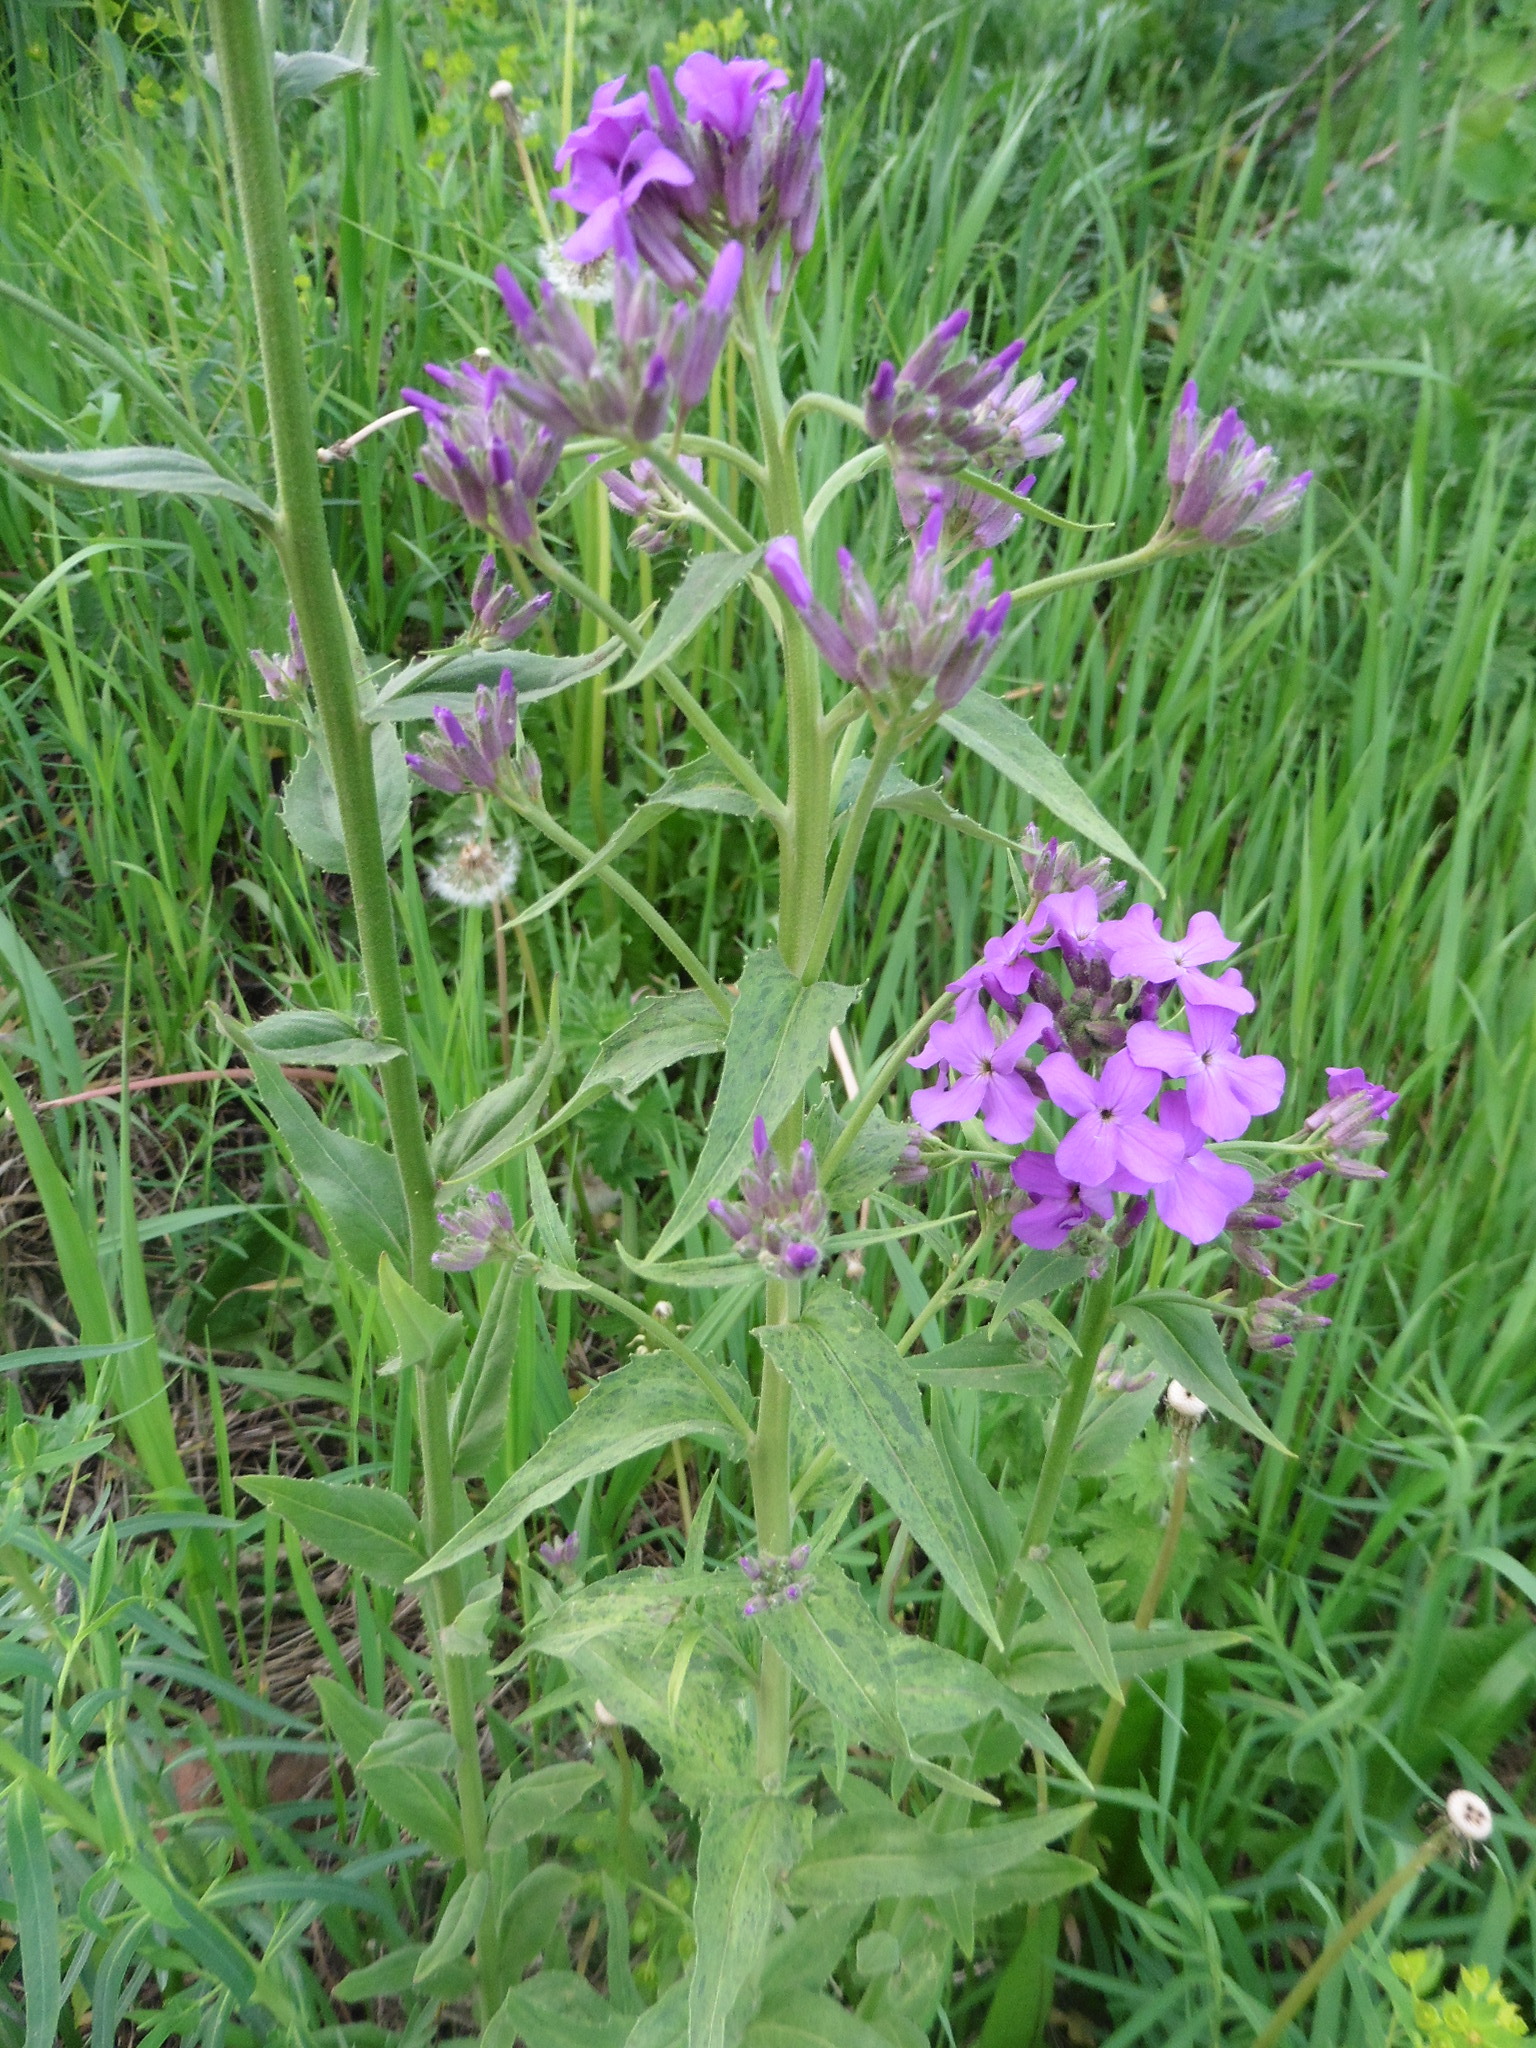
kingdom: Plantae
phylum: Tracheophyta
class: Magnoliopsida
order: Brassicales
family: Brassicaceae
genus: Hesperis
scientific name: Hesperis matronalis
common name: Dame's-violet
